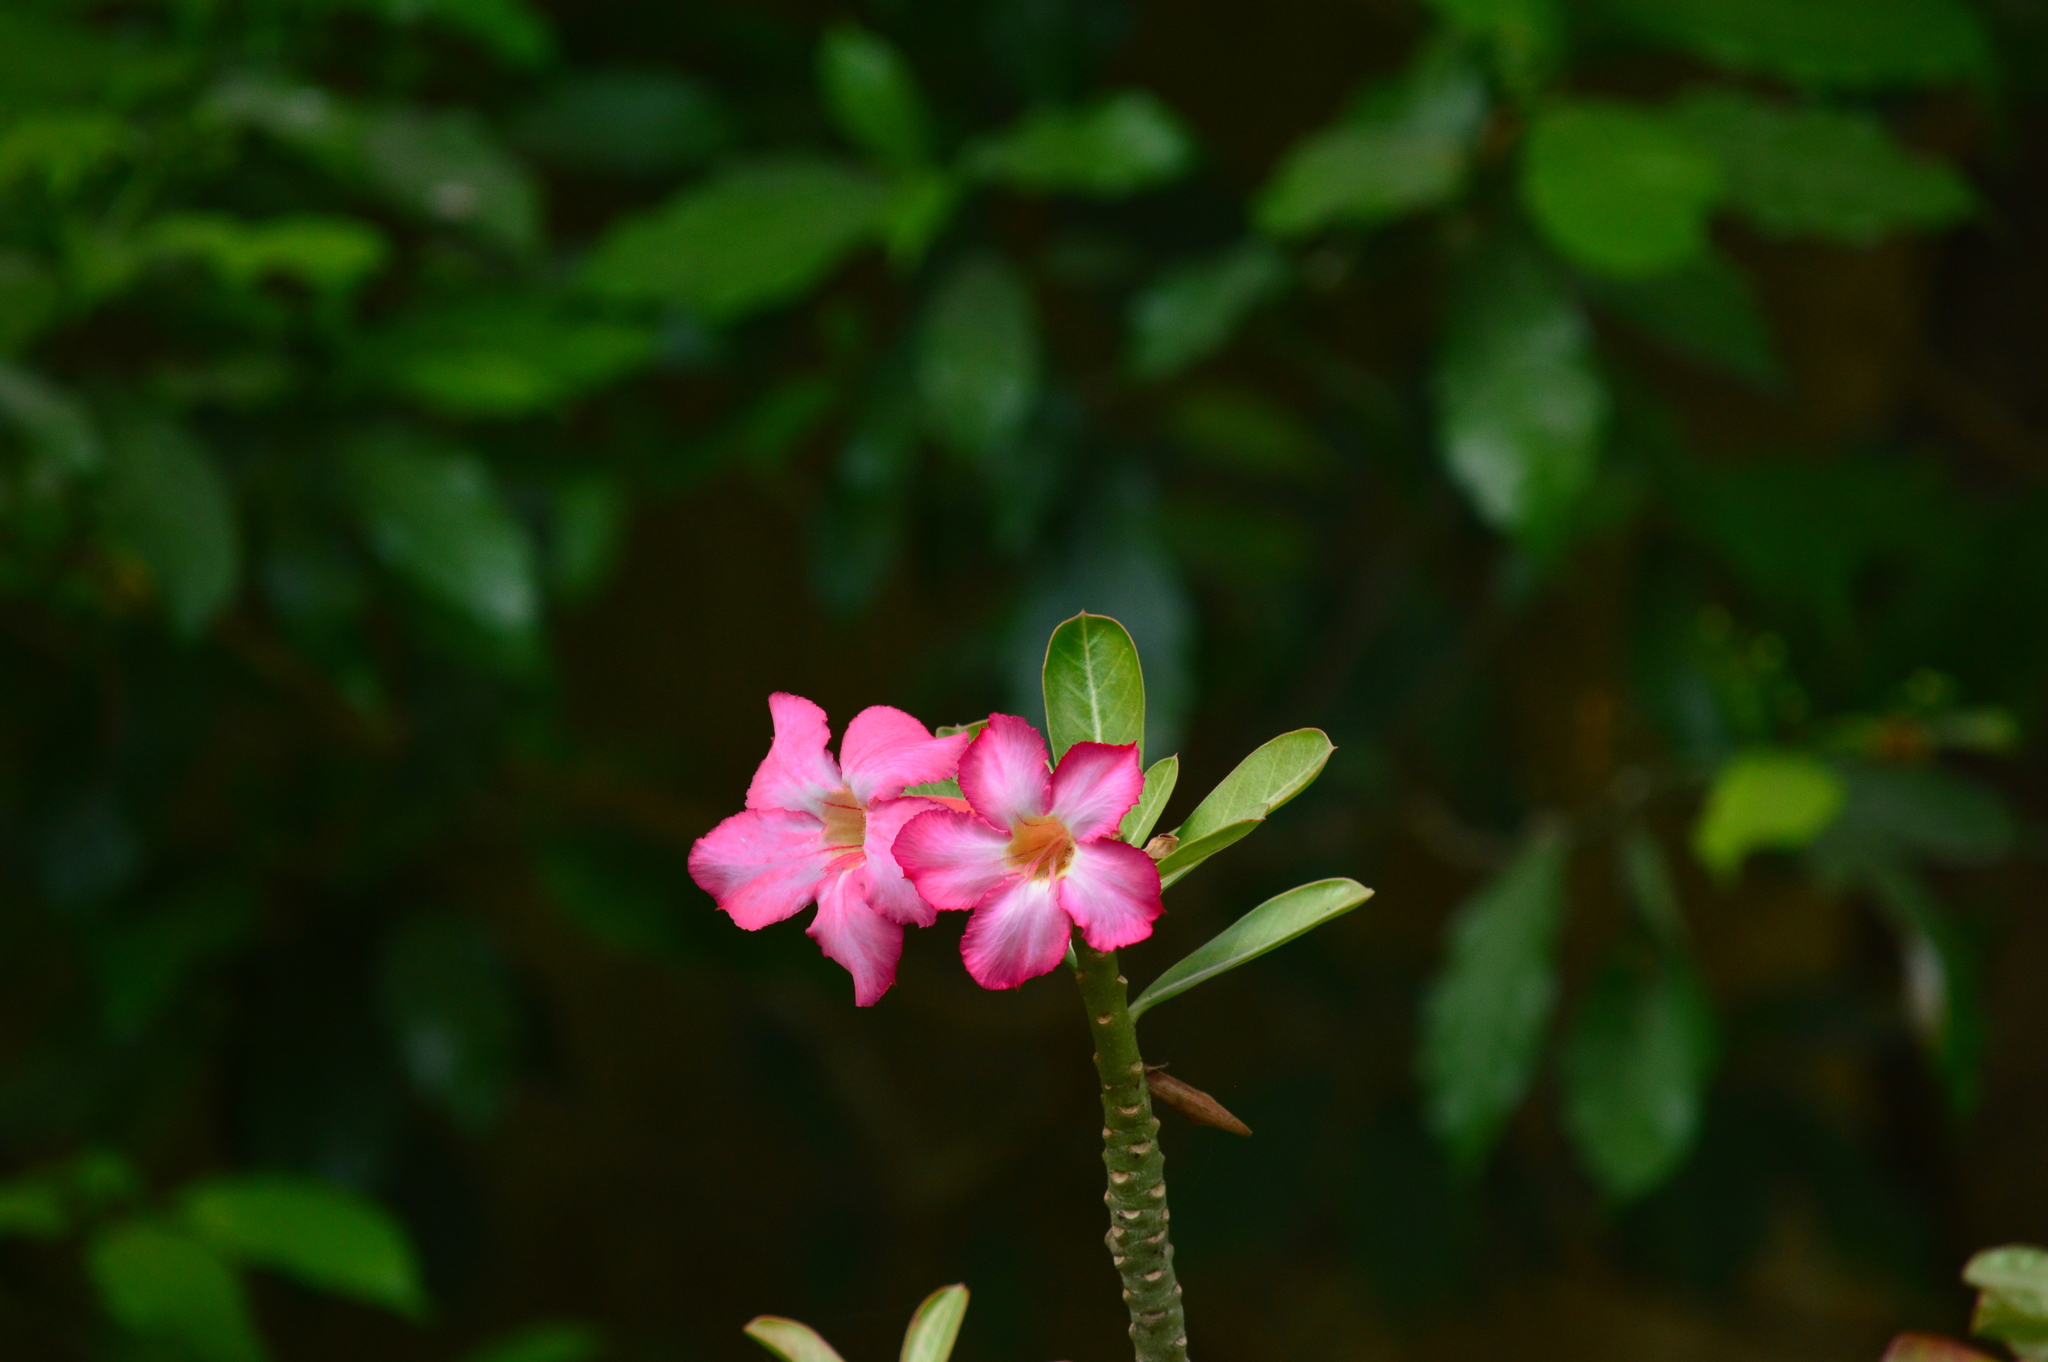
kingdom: Plantae
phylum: Tracheophyta
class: Magnoliopsida
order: Gentianales
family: Apocynaceae
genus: Adenium
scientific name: Adenium obesum
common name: Desert-rose
